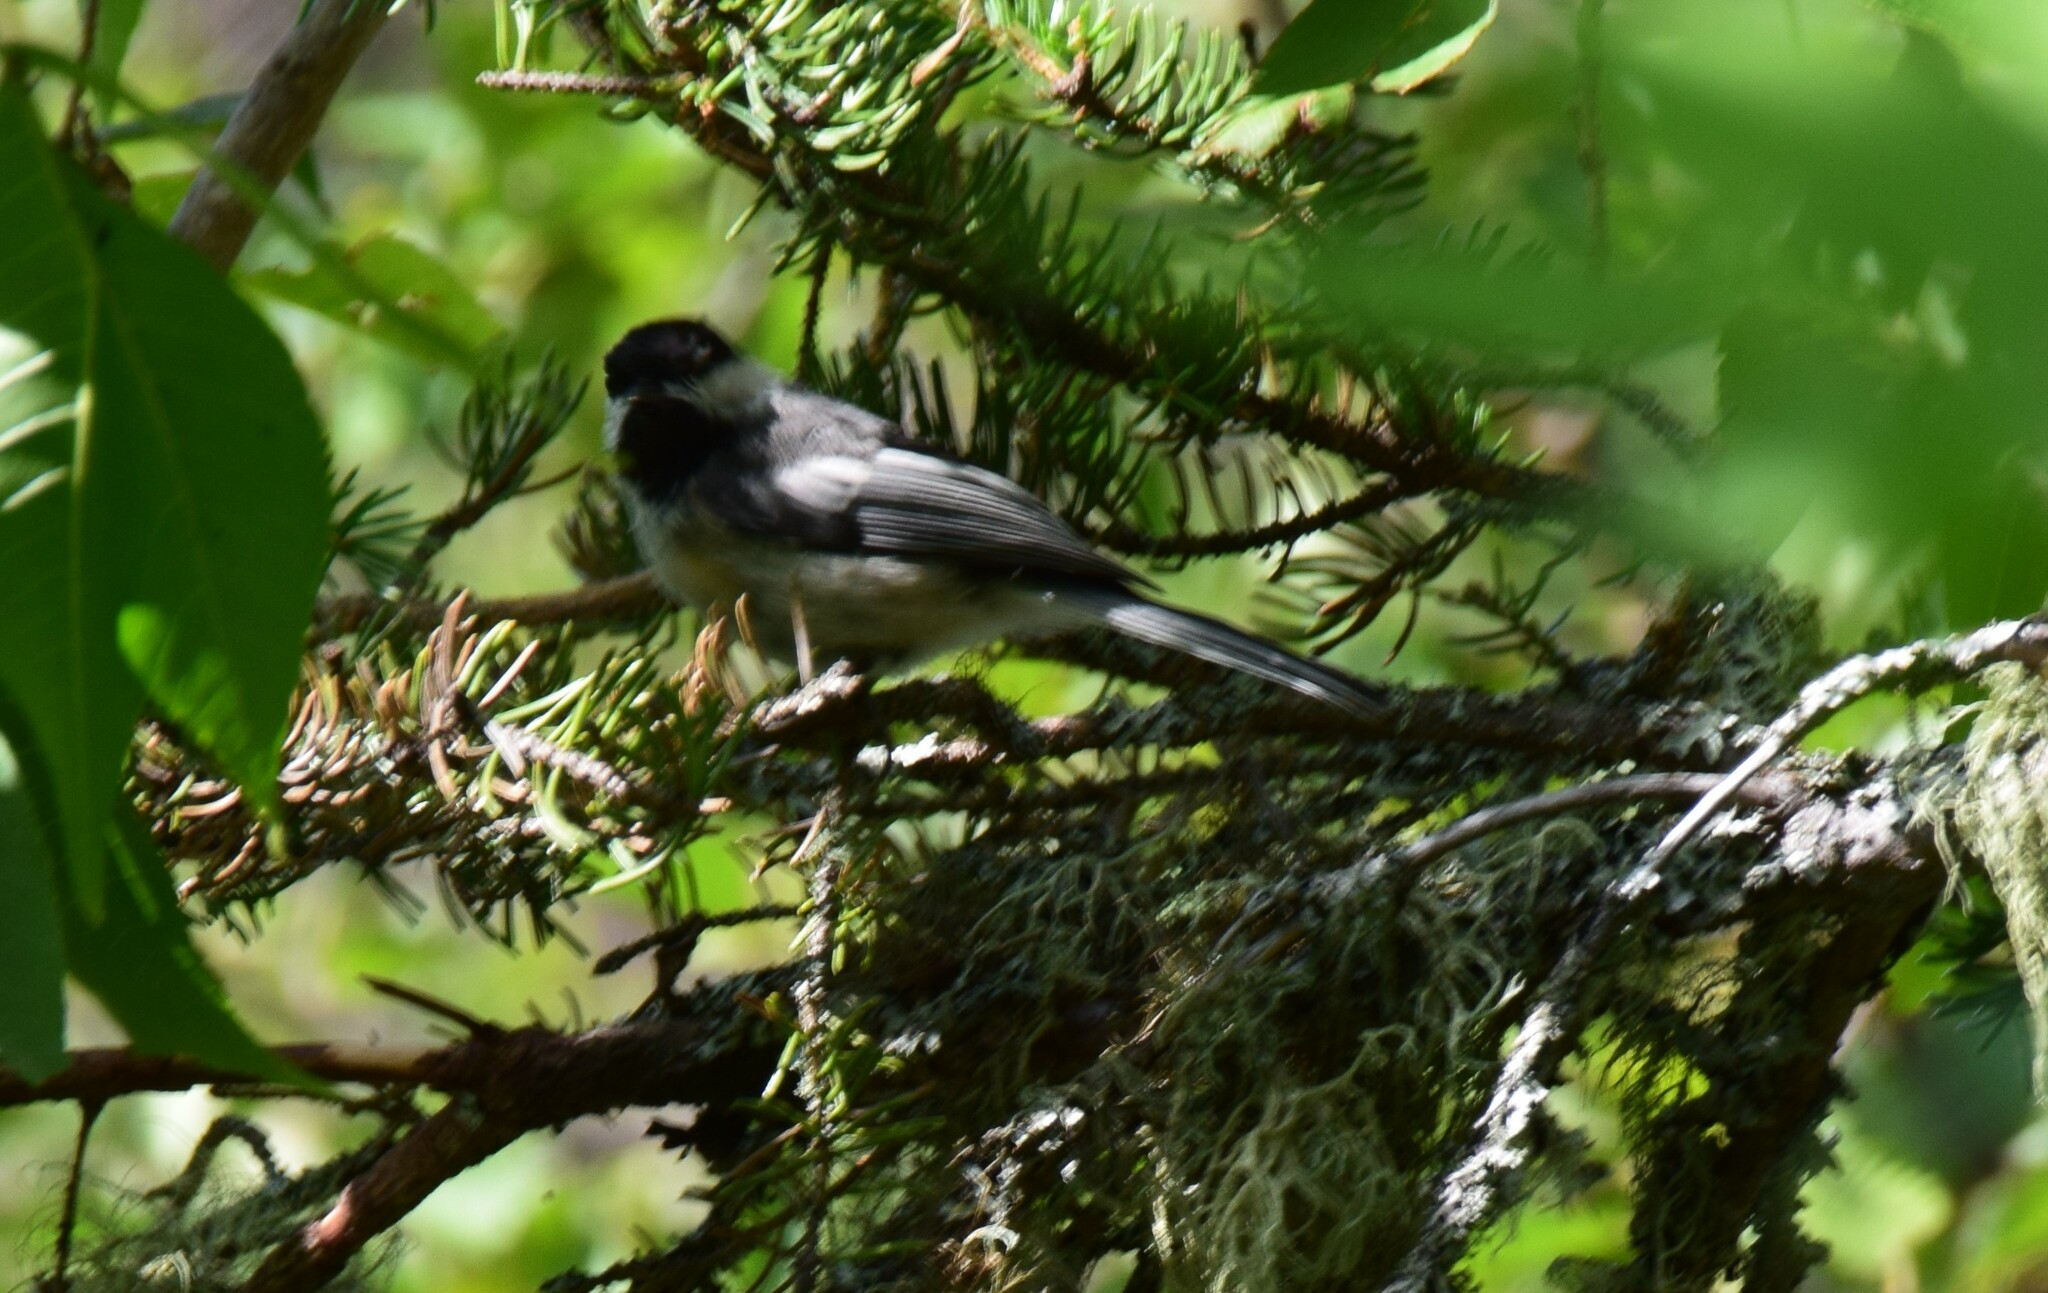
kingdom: Animalia
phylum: Chordata
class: Aves
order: Passeriformes
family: Paridae
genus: Poecile
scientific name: Poecile atricapillus
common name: Black-capped chickadee
